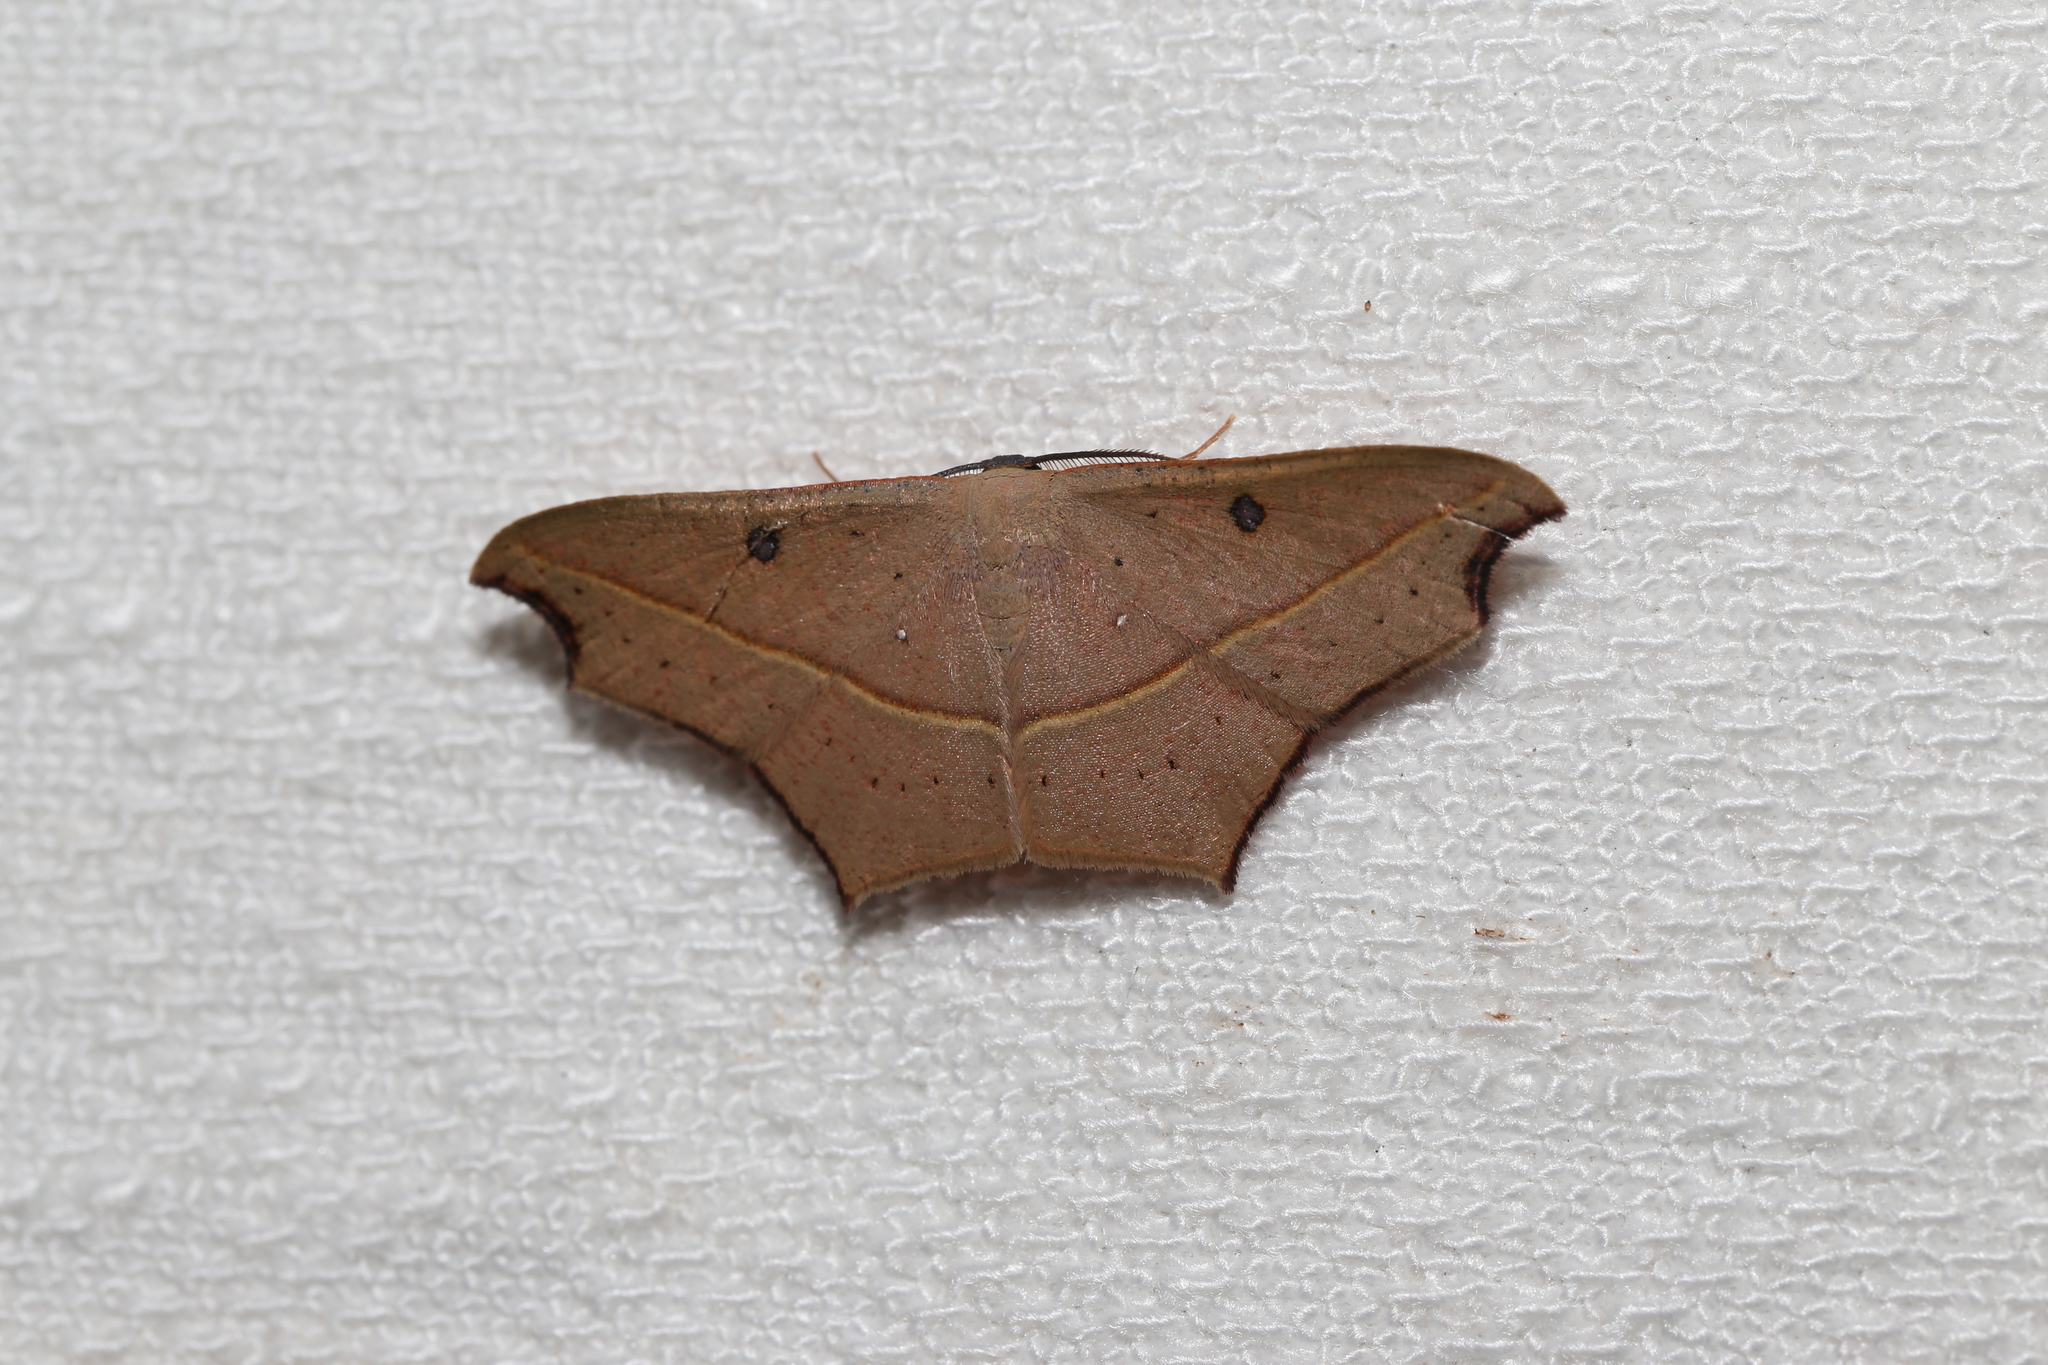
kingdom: Animalia
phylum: Arthropoda
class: Insecta
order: Lepidoptera
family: Geometridae
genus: Traminda
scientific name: Traminda rubra
